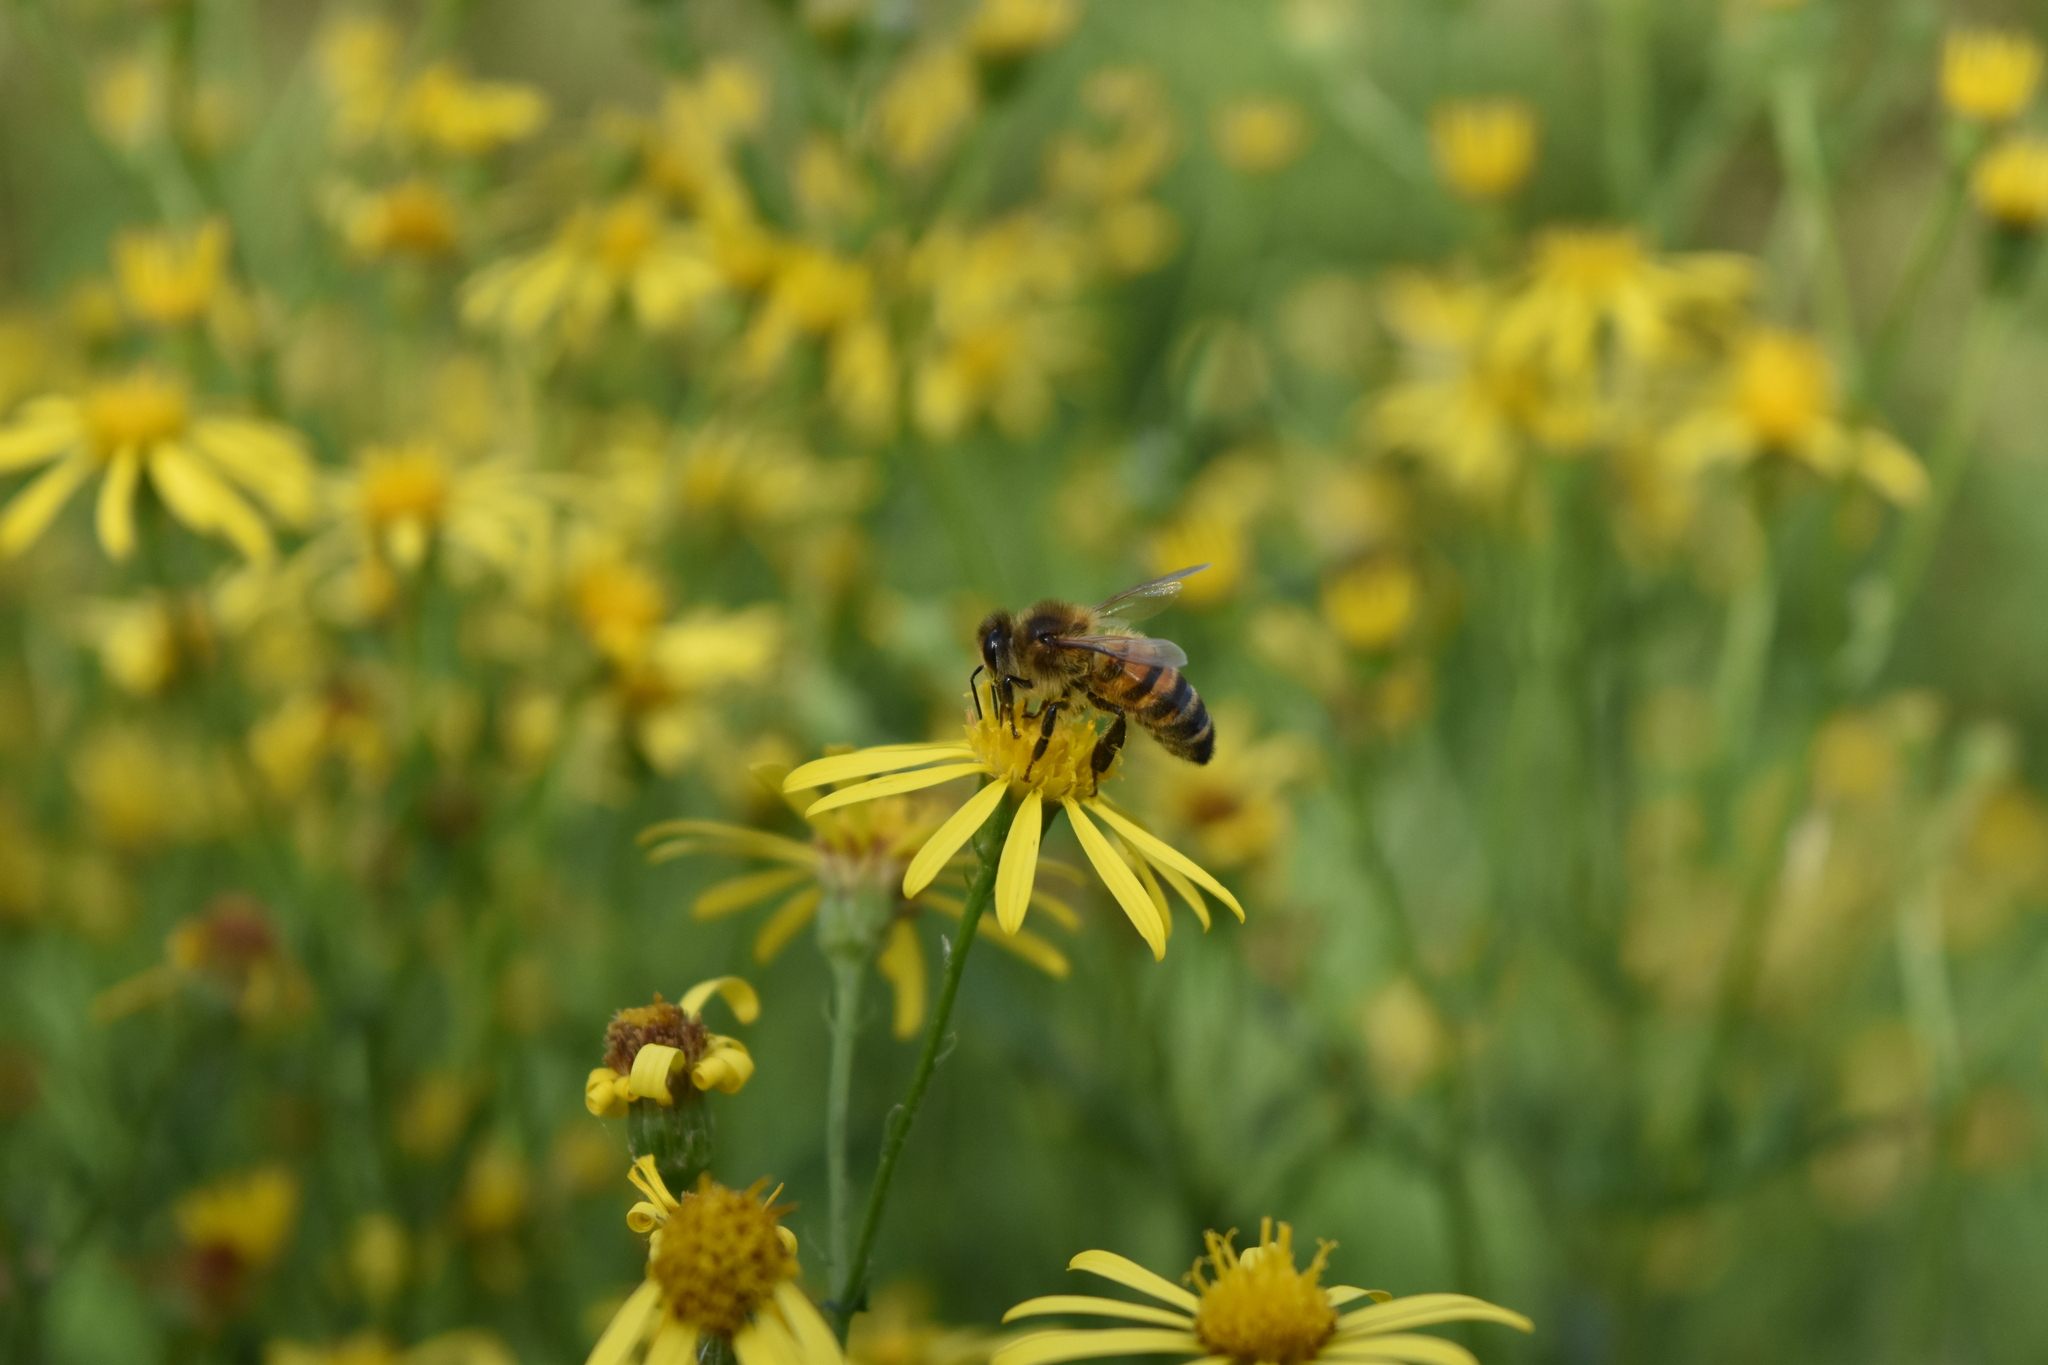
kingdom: Animalia
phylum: Arthropoda
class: Insecta
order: Hymenoptera
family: Apidae
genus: Apis
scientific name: Apis mellifera
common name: Honey bee
